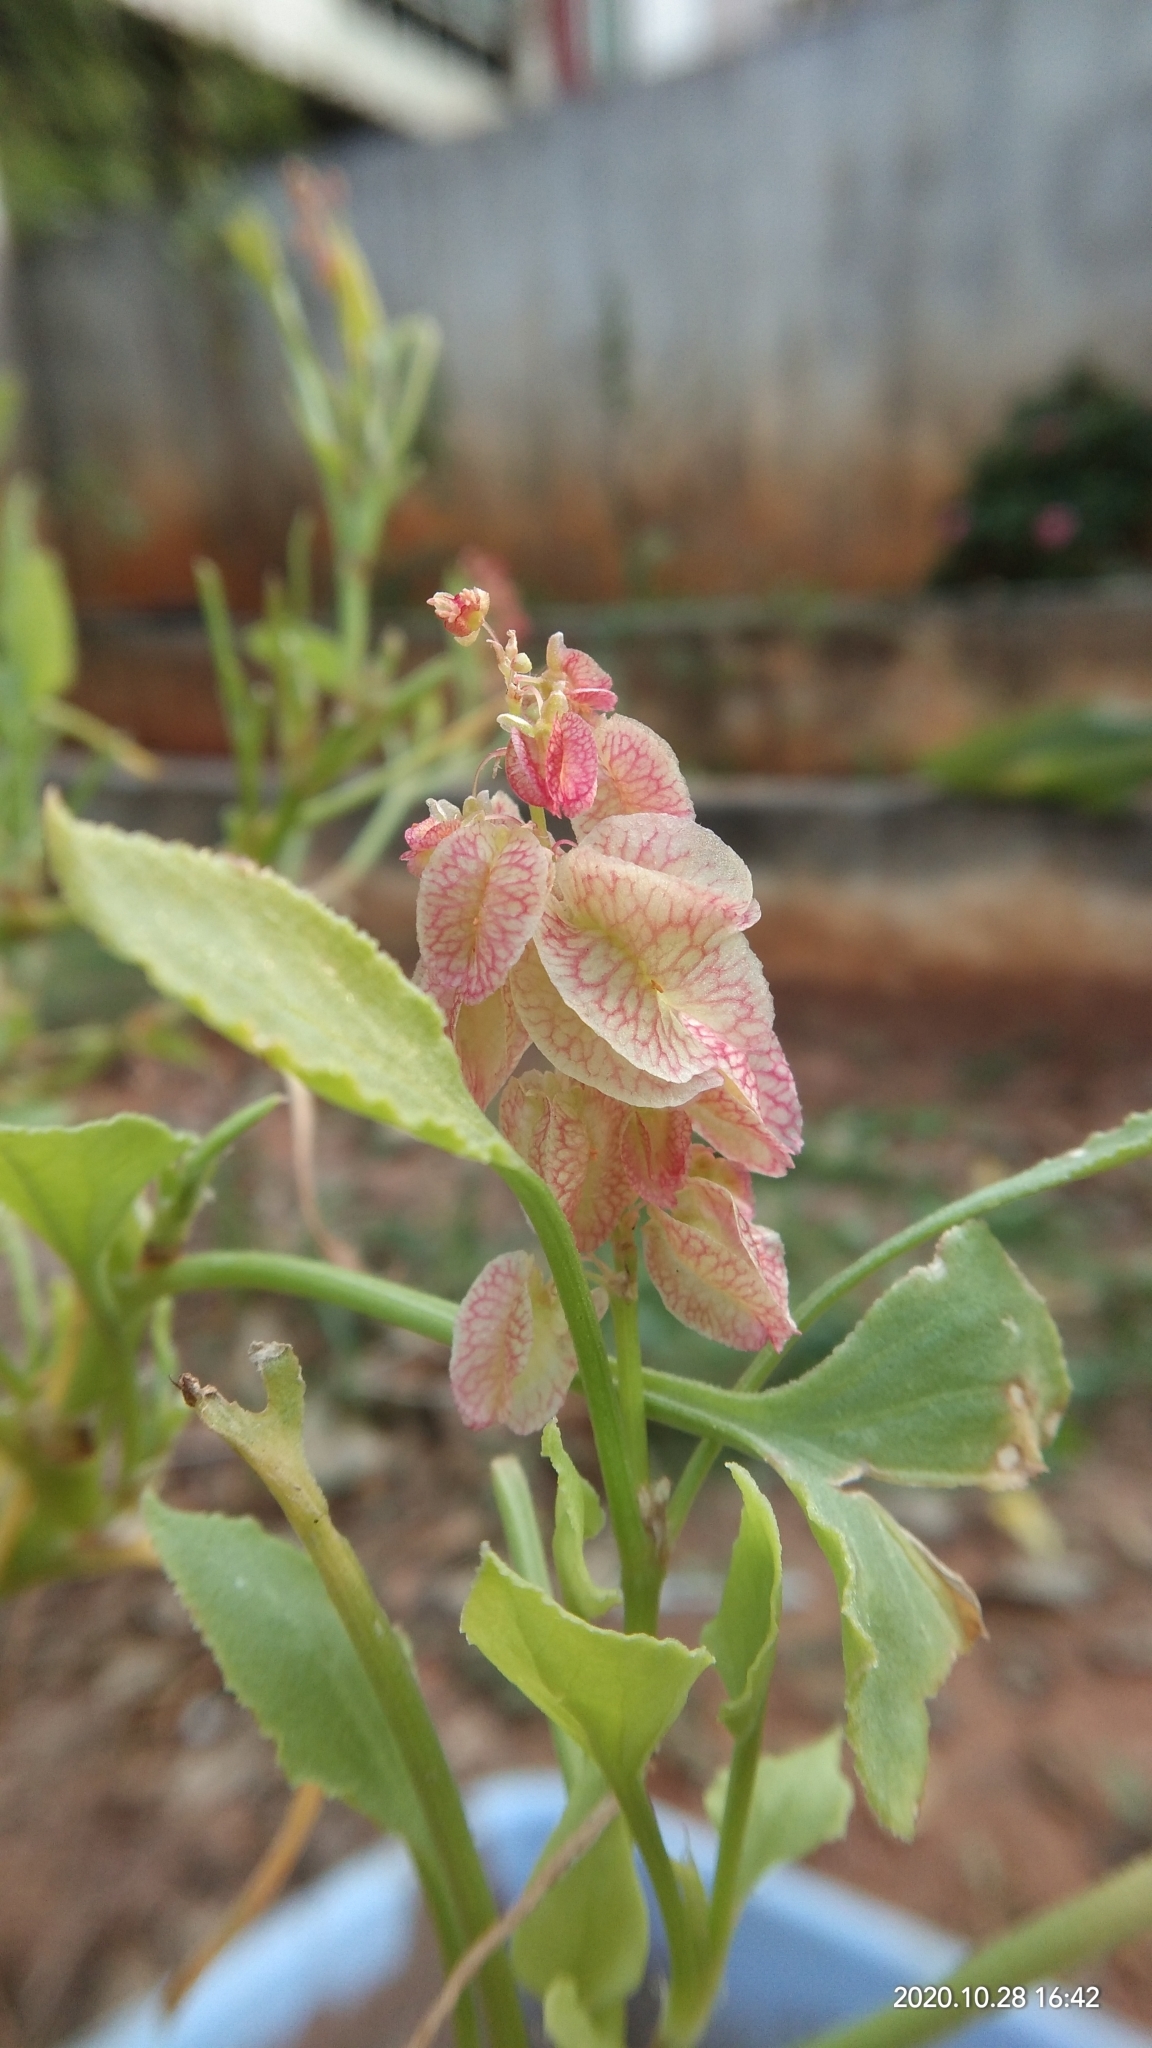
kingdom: Plantae
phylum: Tracheophyta
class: Magnoliopsida
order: Caryophyllales
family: Polygonaceae
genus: Rumex
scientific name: Rumex vesicarius
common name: Bladder dock
